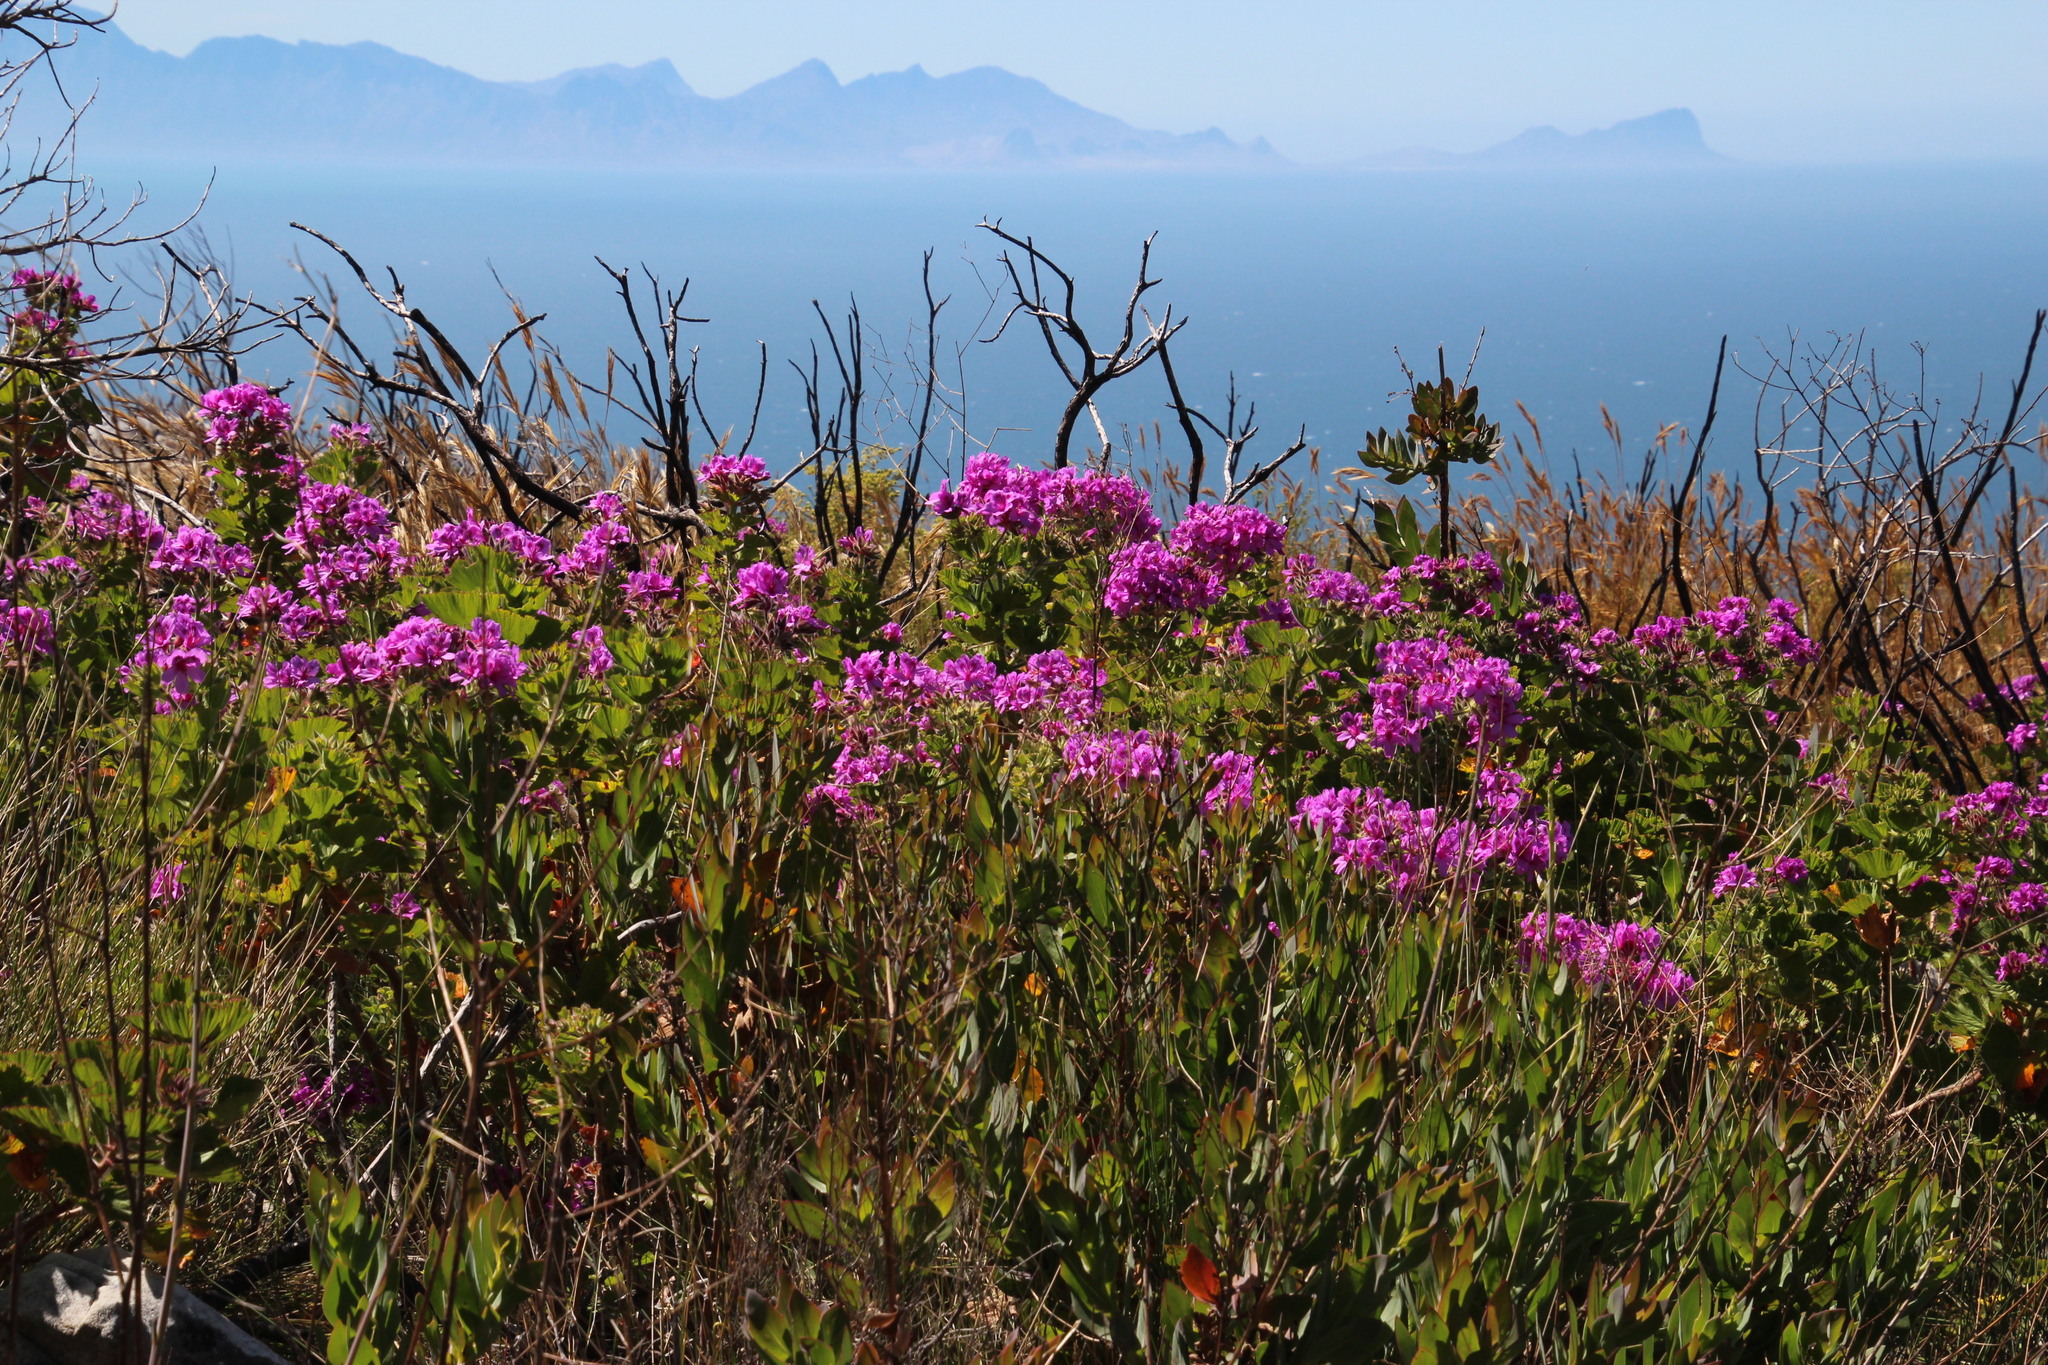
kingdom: Plantae
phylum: Tracheophyta
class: Magnoliopsida
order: Geraniales
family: Geraniaceae
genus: Pelargonium
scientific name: Pelargonium cucullatum
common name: Tree pelargonium
